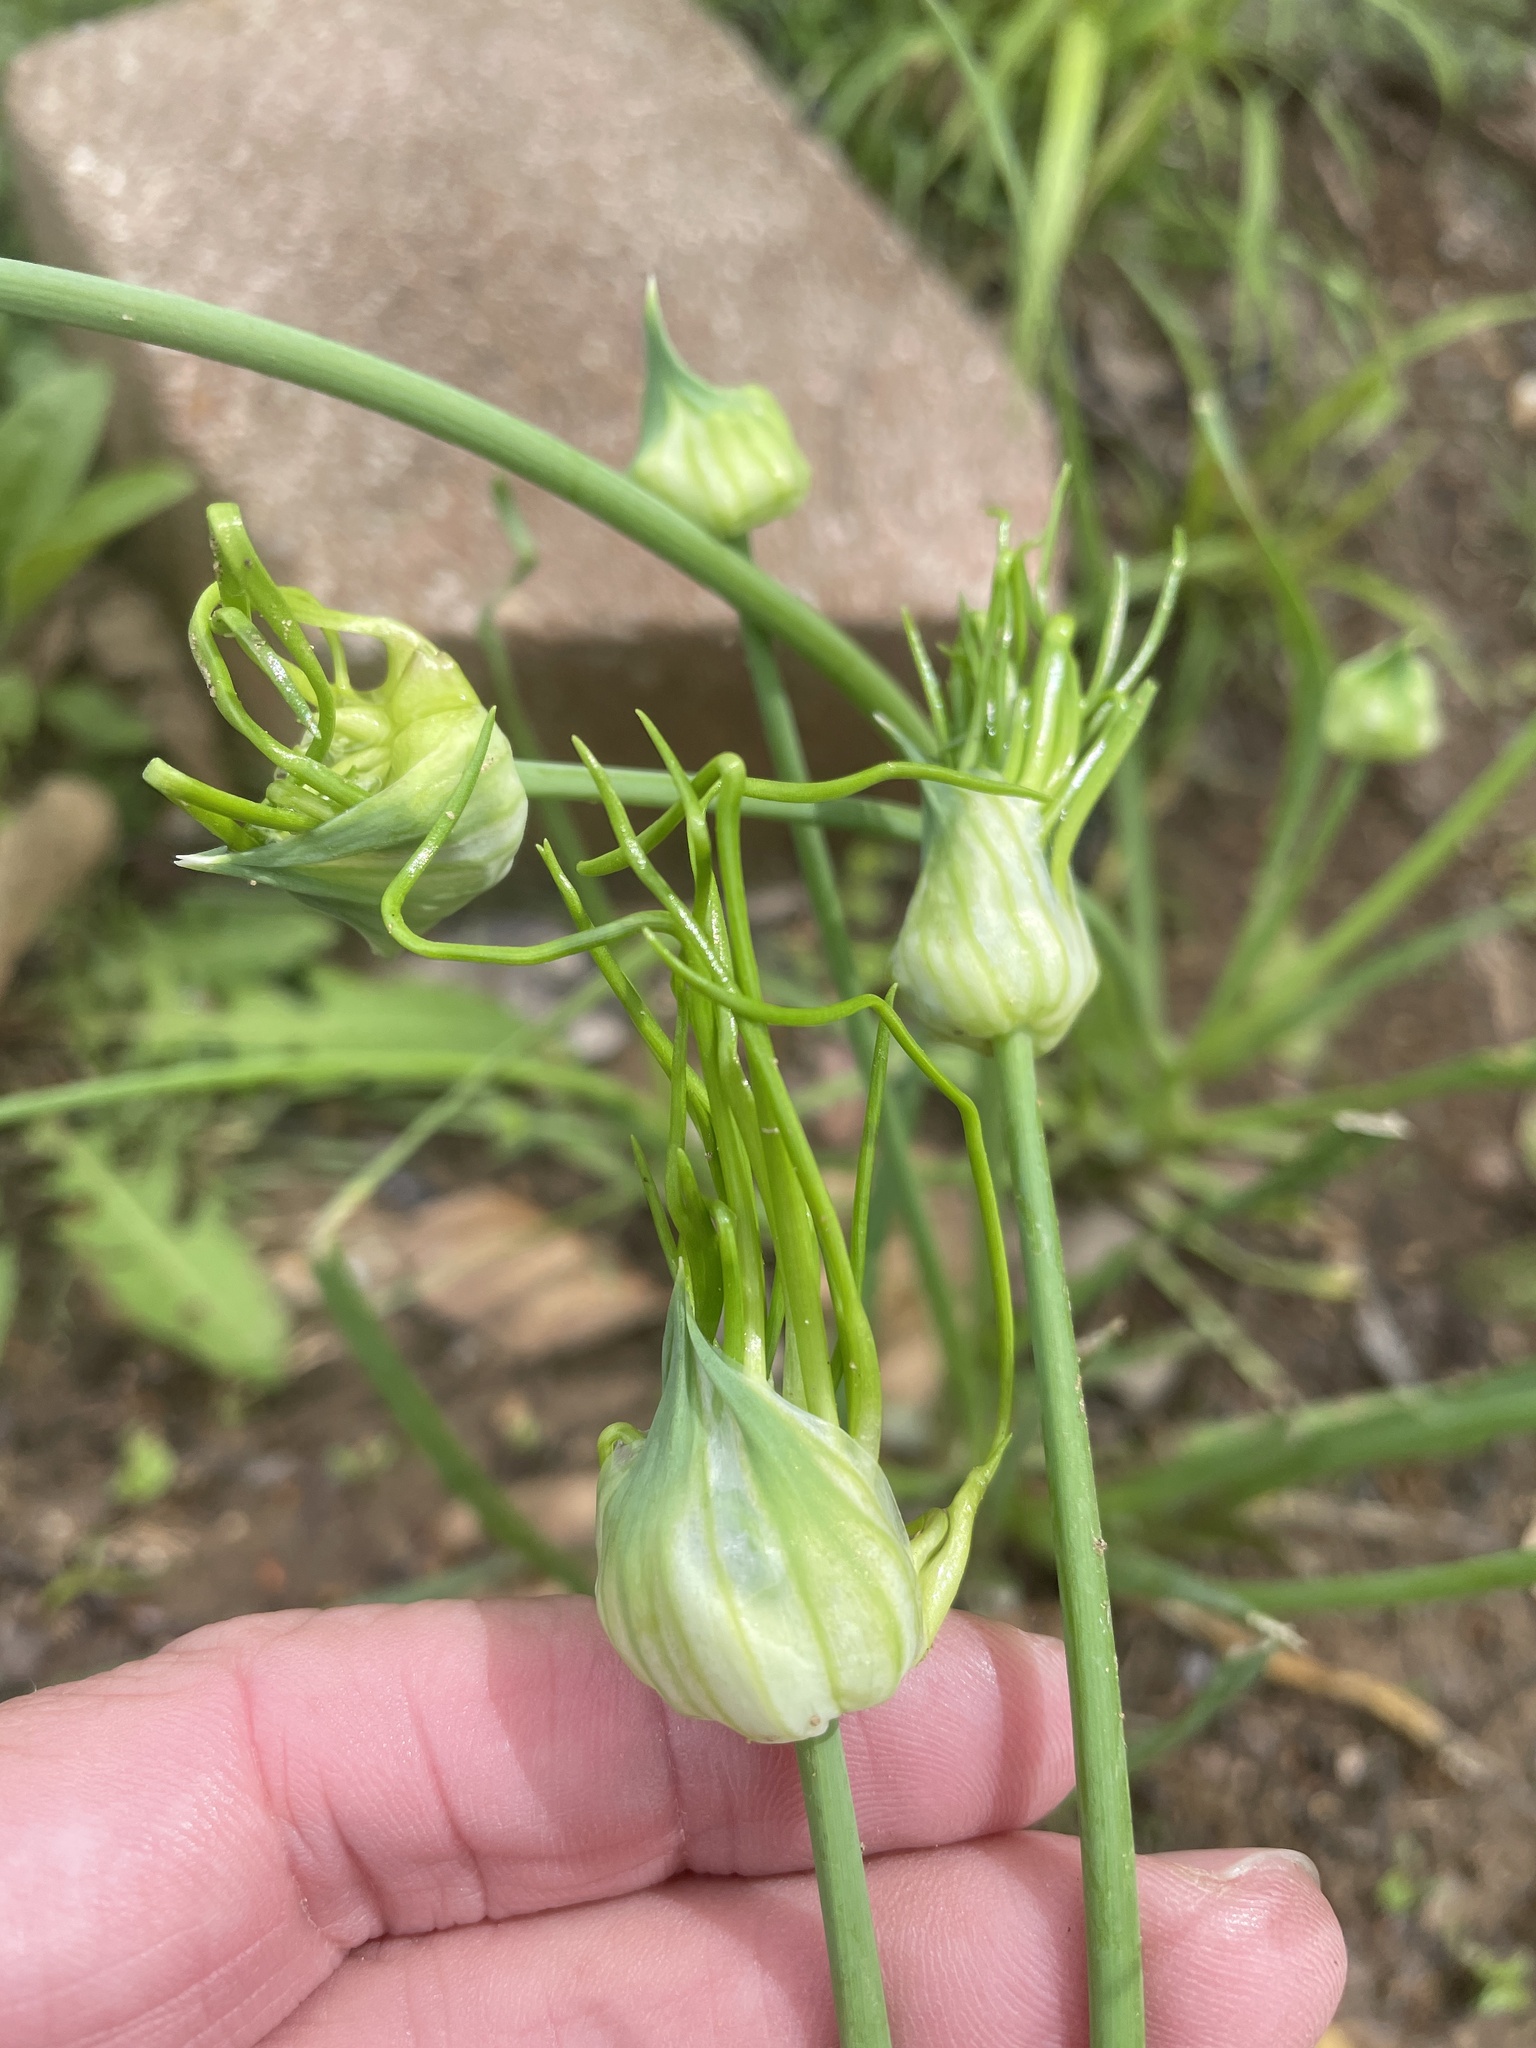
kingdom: Plantae
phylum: Tracheophyta
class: Liliopsida
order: Asparagales
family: Amaryllidaceae
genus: Allium
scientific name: Allium canadense
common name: Meadow garlic
